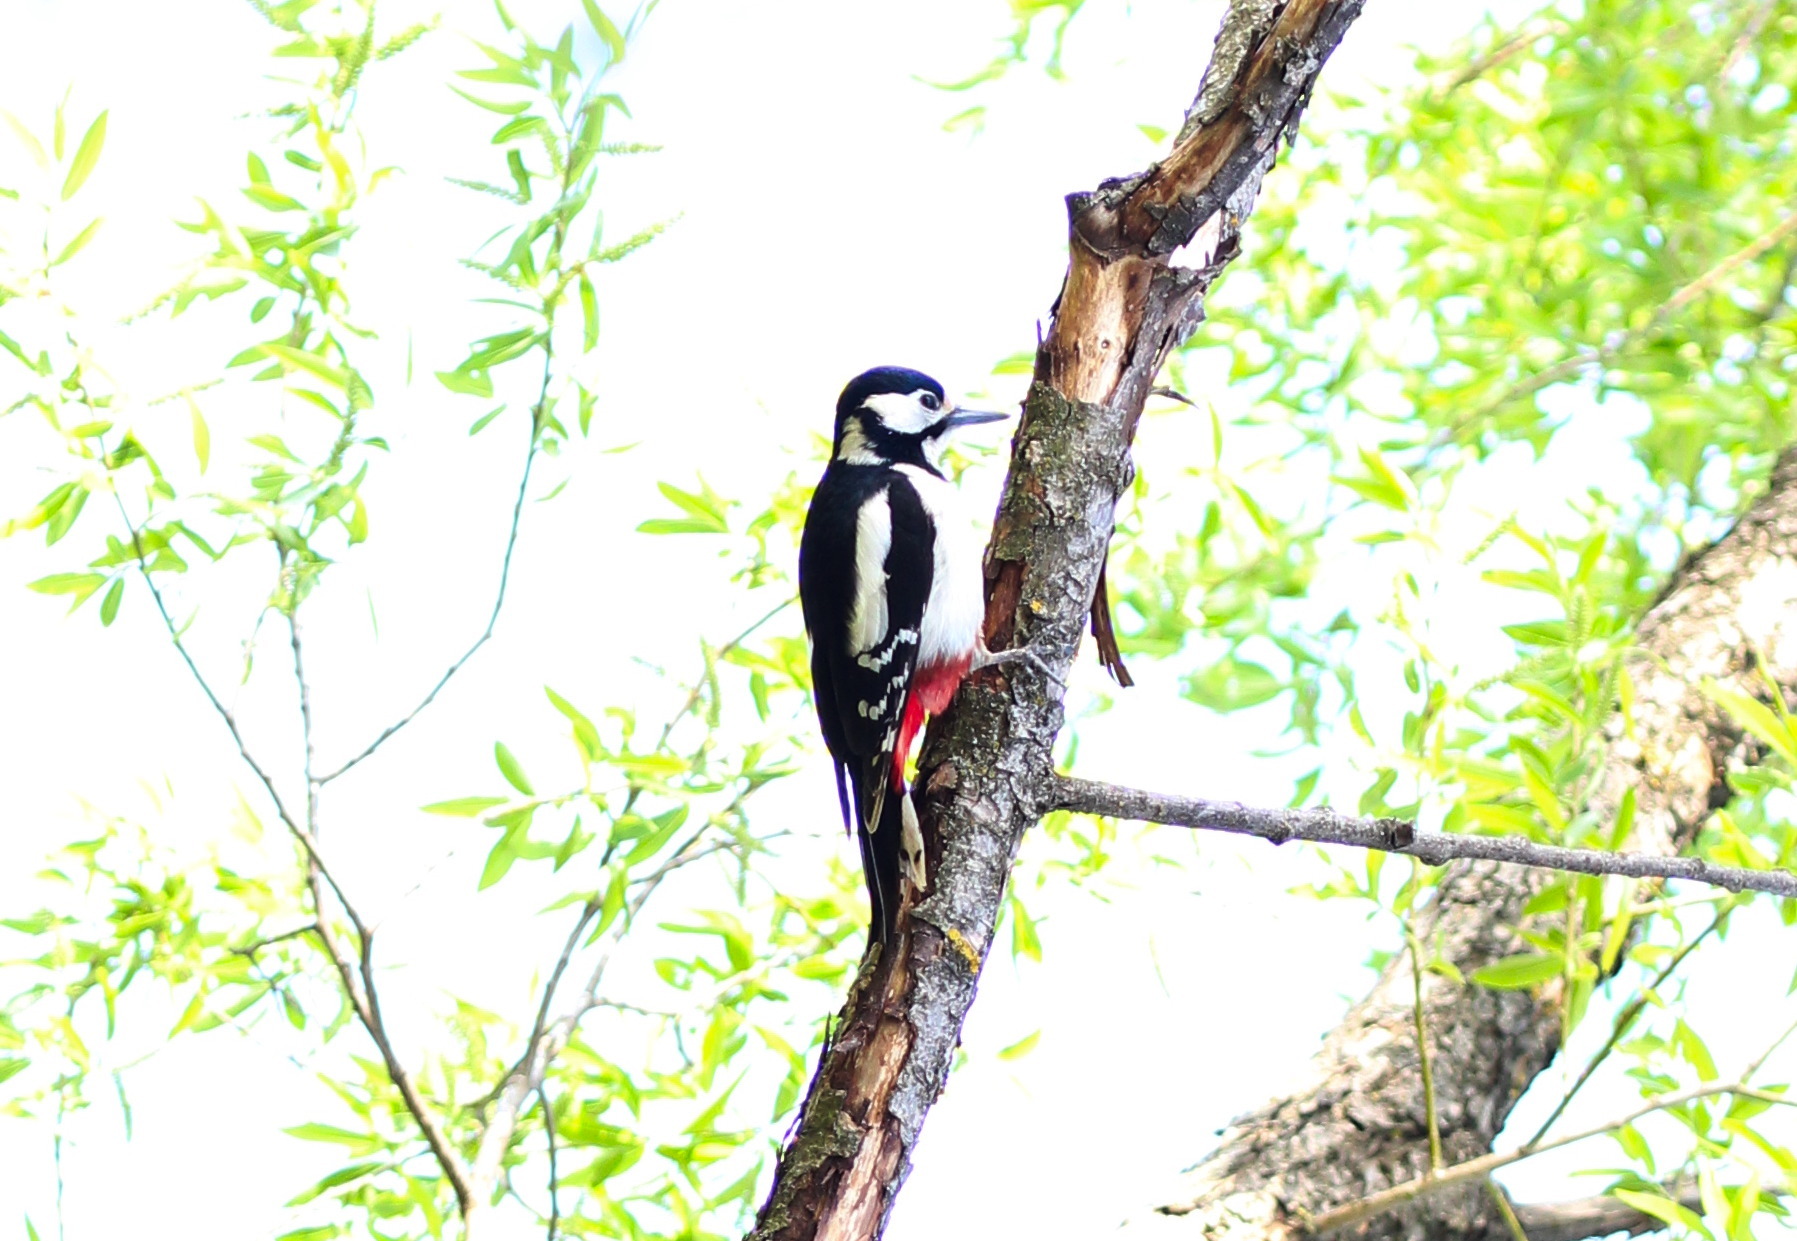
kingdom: Animalia
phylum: Chordata
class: Aves
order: Piciformes
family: Picidae
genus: Dendrocopos
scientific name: Dendrocopos major
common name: Great spotted woodpecker
